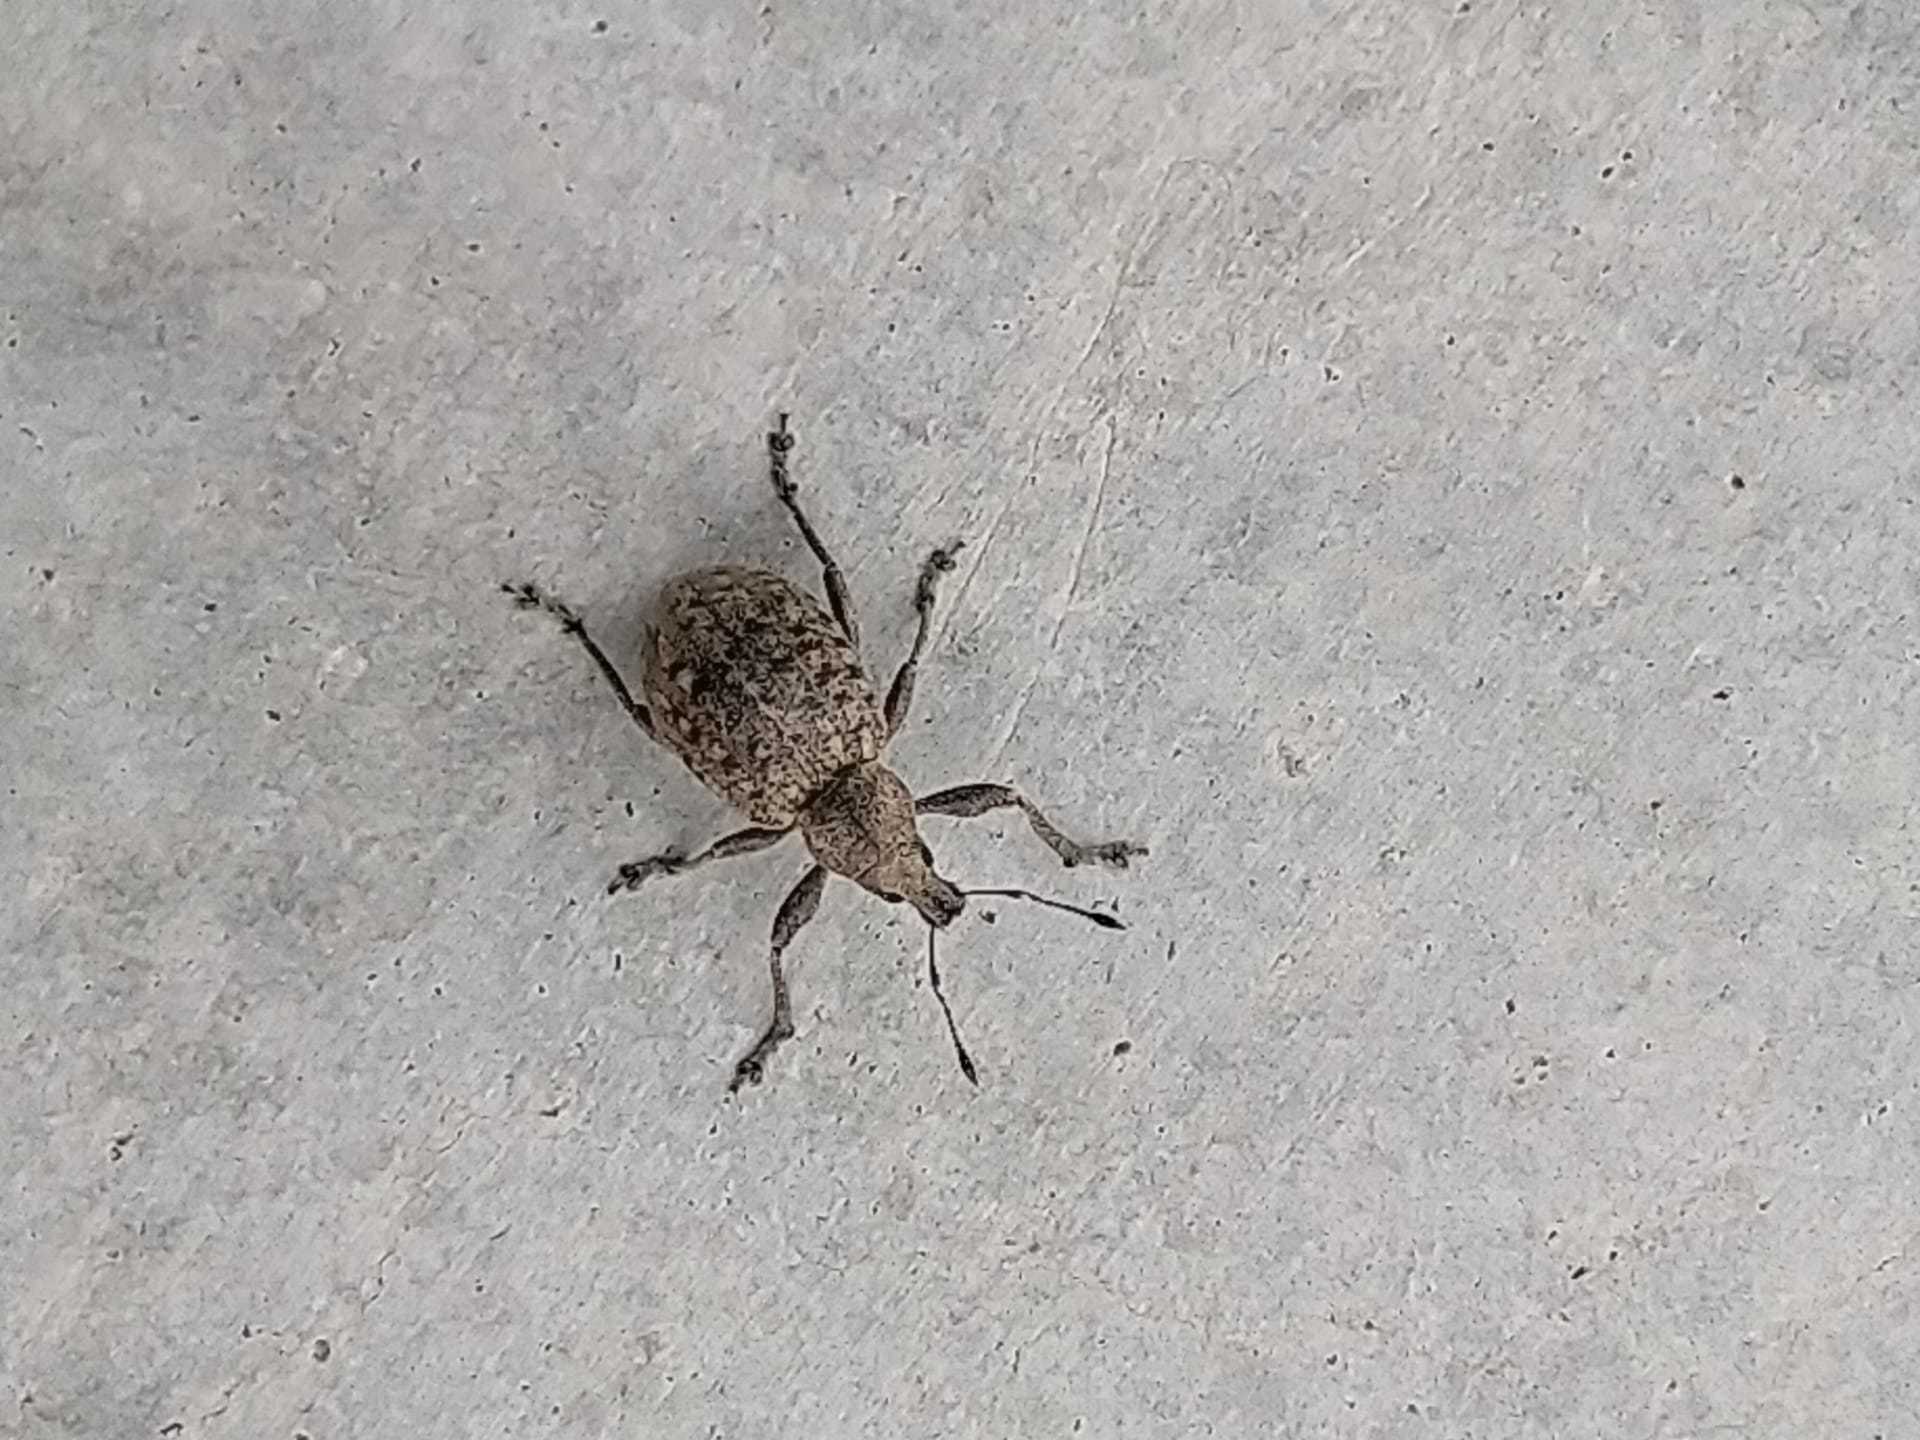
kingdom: Animalia
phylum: Arthropoda
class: Insecta
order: Coleoptera
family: Curculionidae
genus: Liophloeus
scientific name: Liophloeus tessulatus
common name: Weevil
